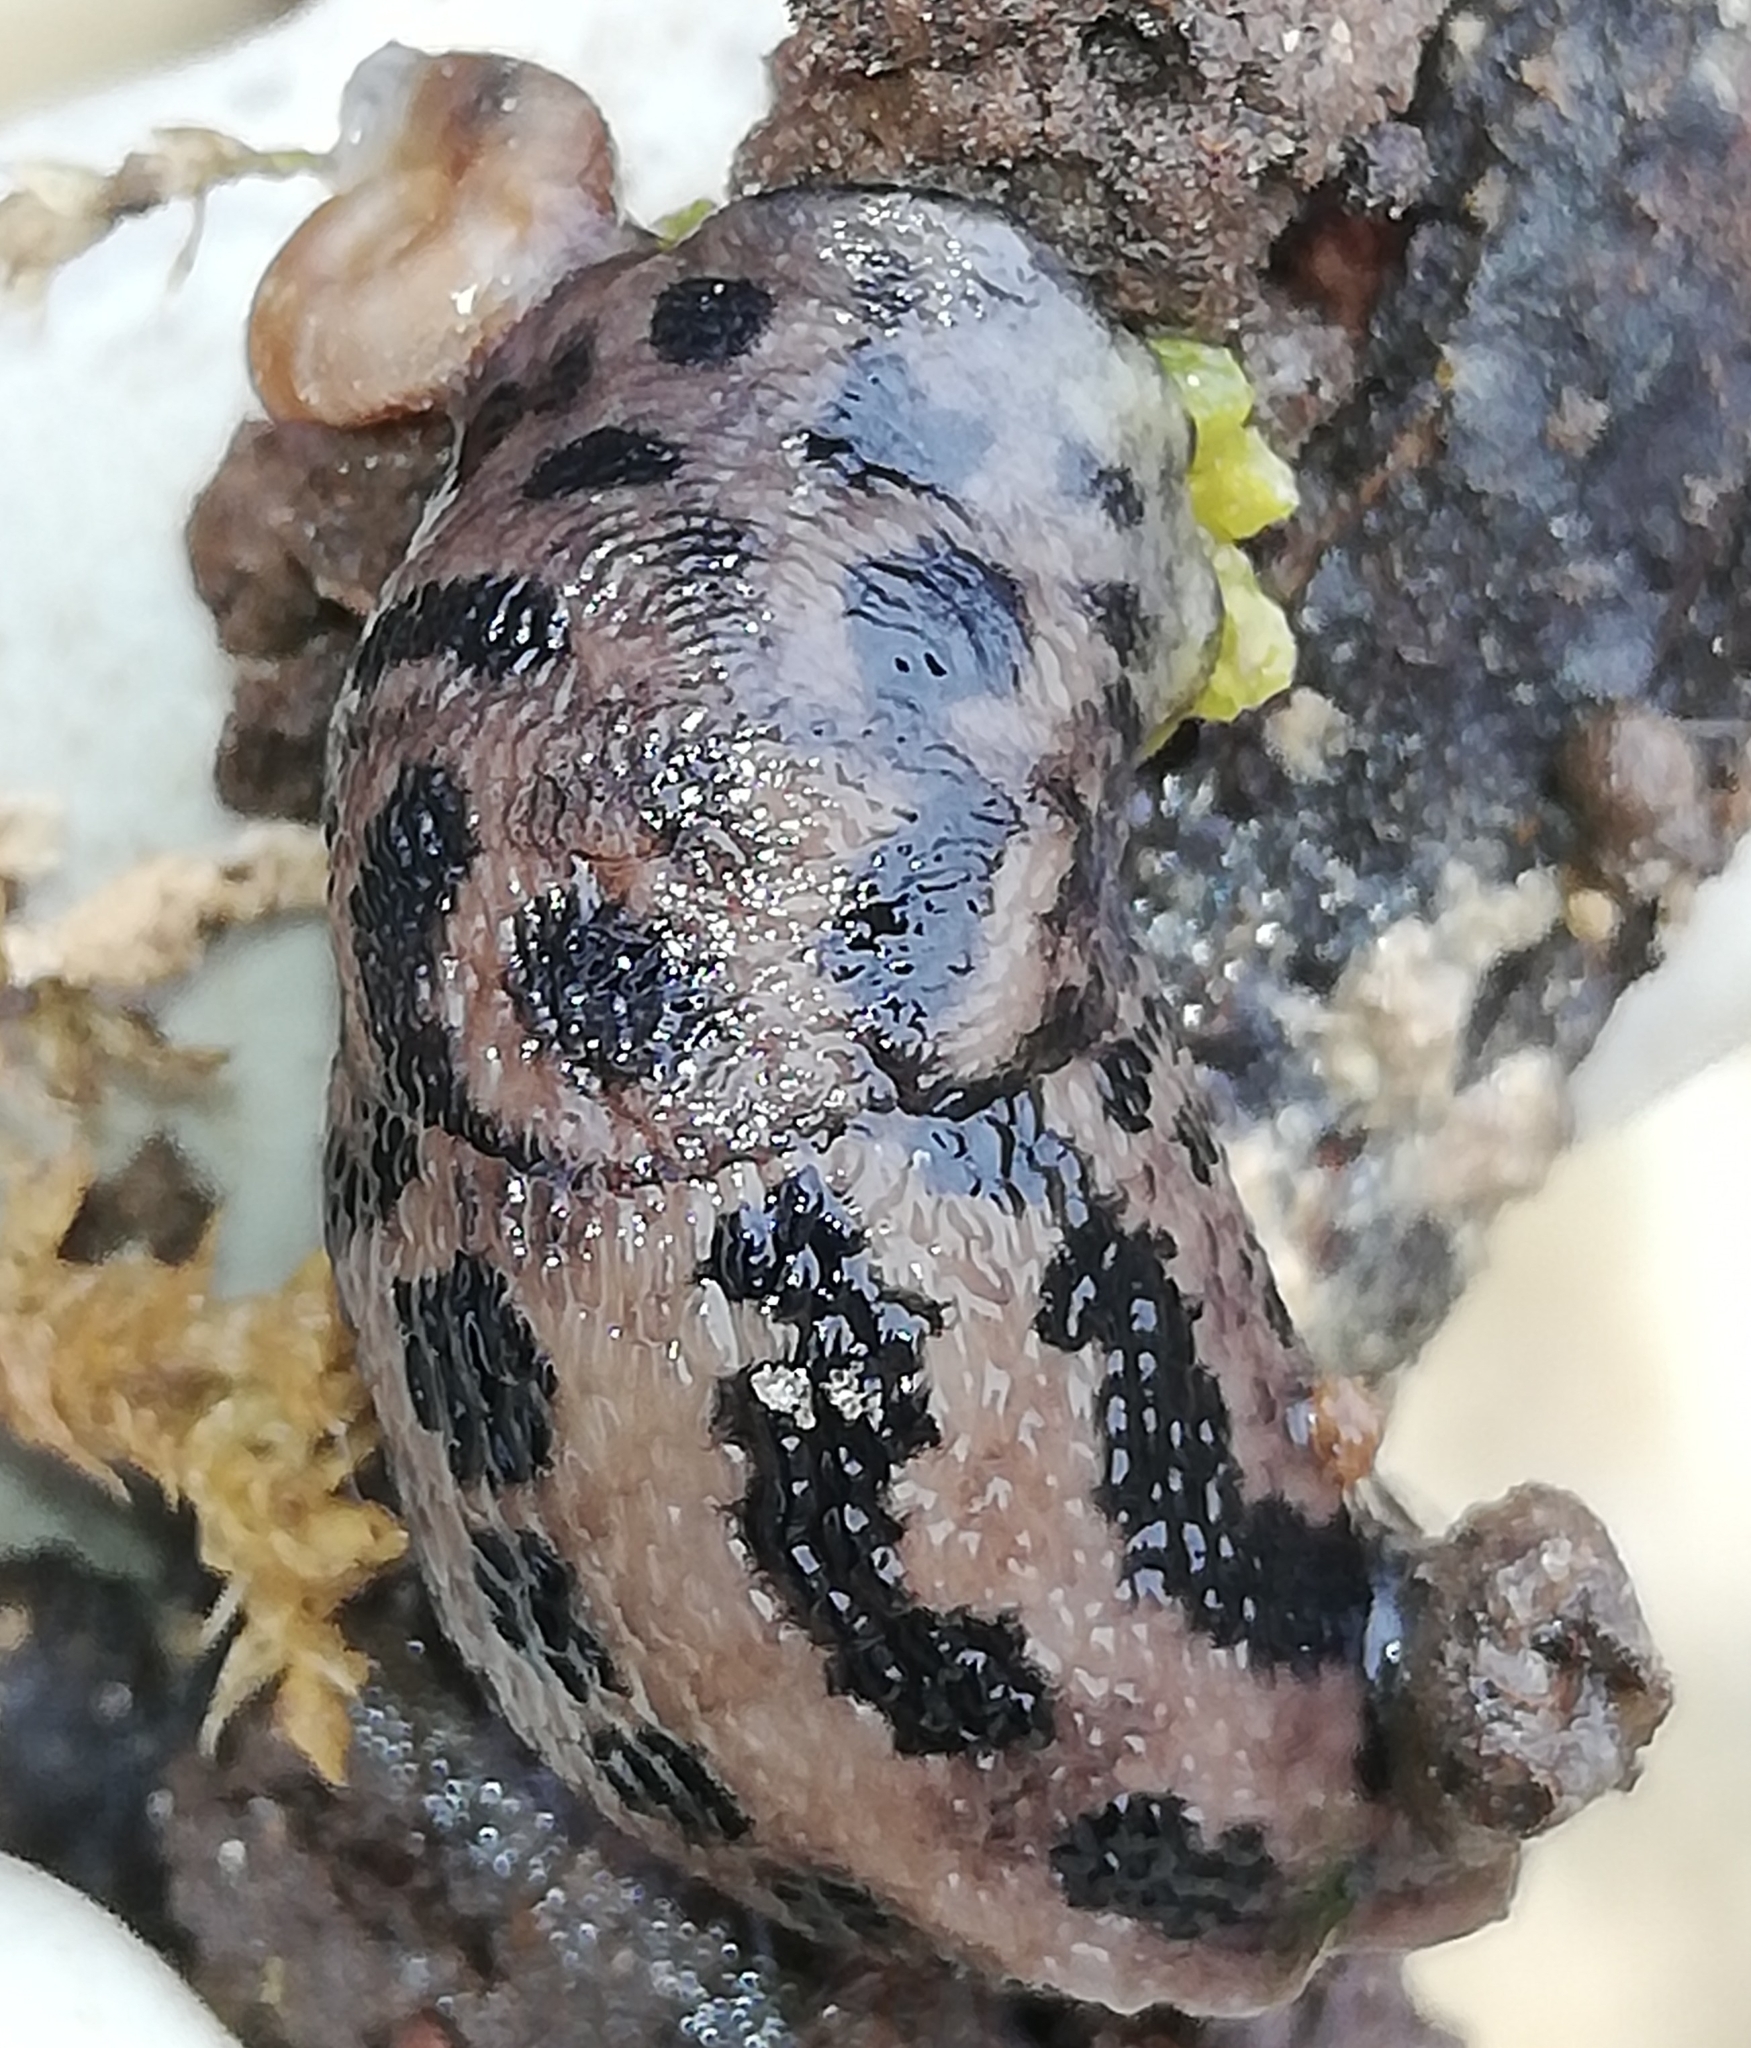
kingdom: Animalia
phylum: Mollusca
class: Gastropoda
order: Stylommatophora
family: Limacidae
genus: Limax
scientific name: Limax maximus
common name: Great grey slug
